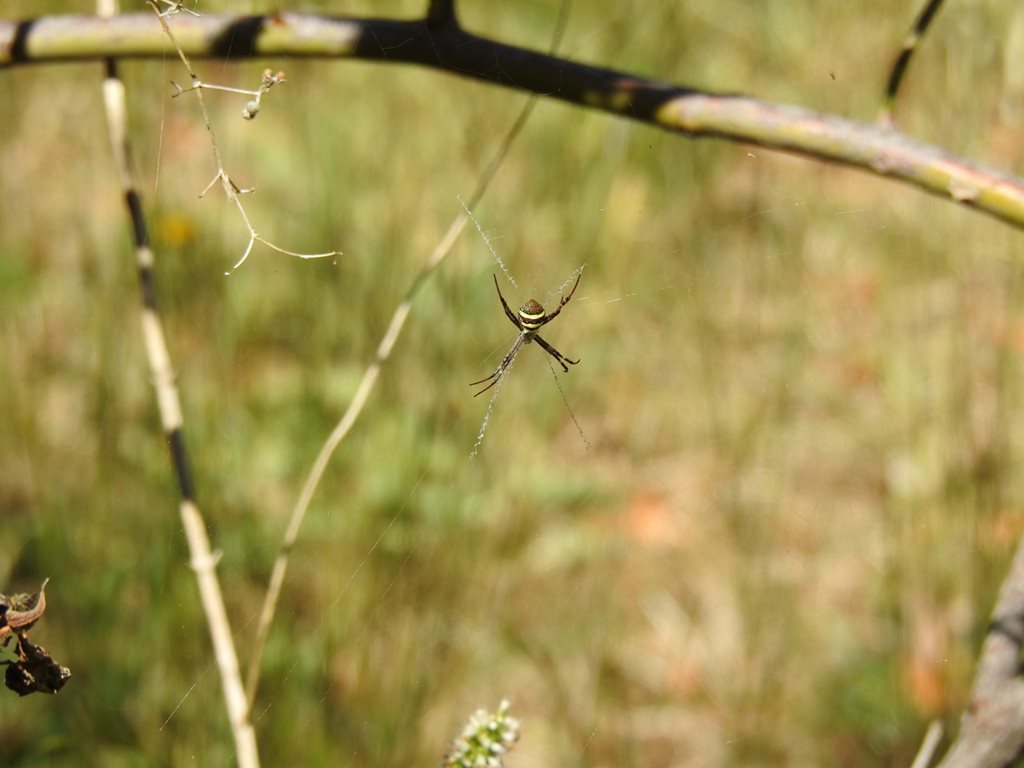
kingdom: Animalia
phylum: Arthropoda
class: Arachnida
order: Araneae
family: Araneidae
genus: Argiope
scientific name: Argiope keyserlingi
